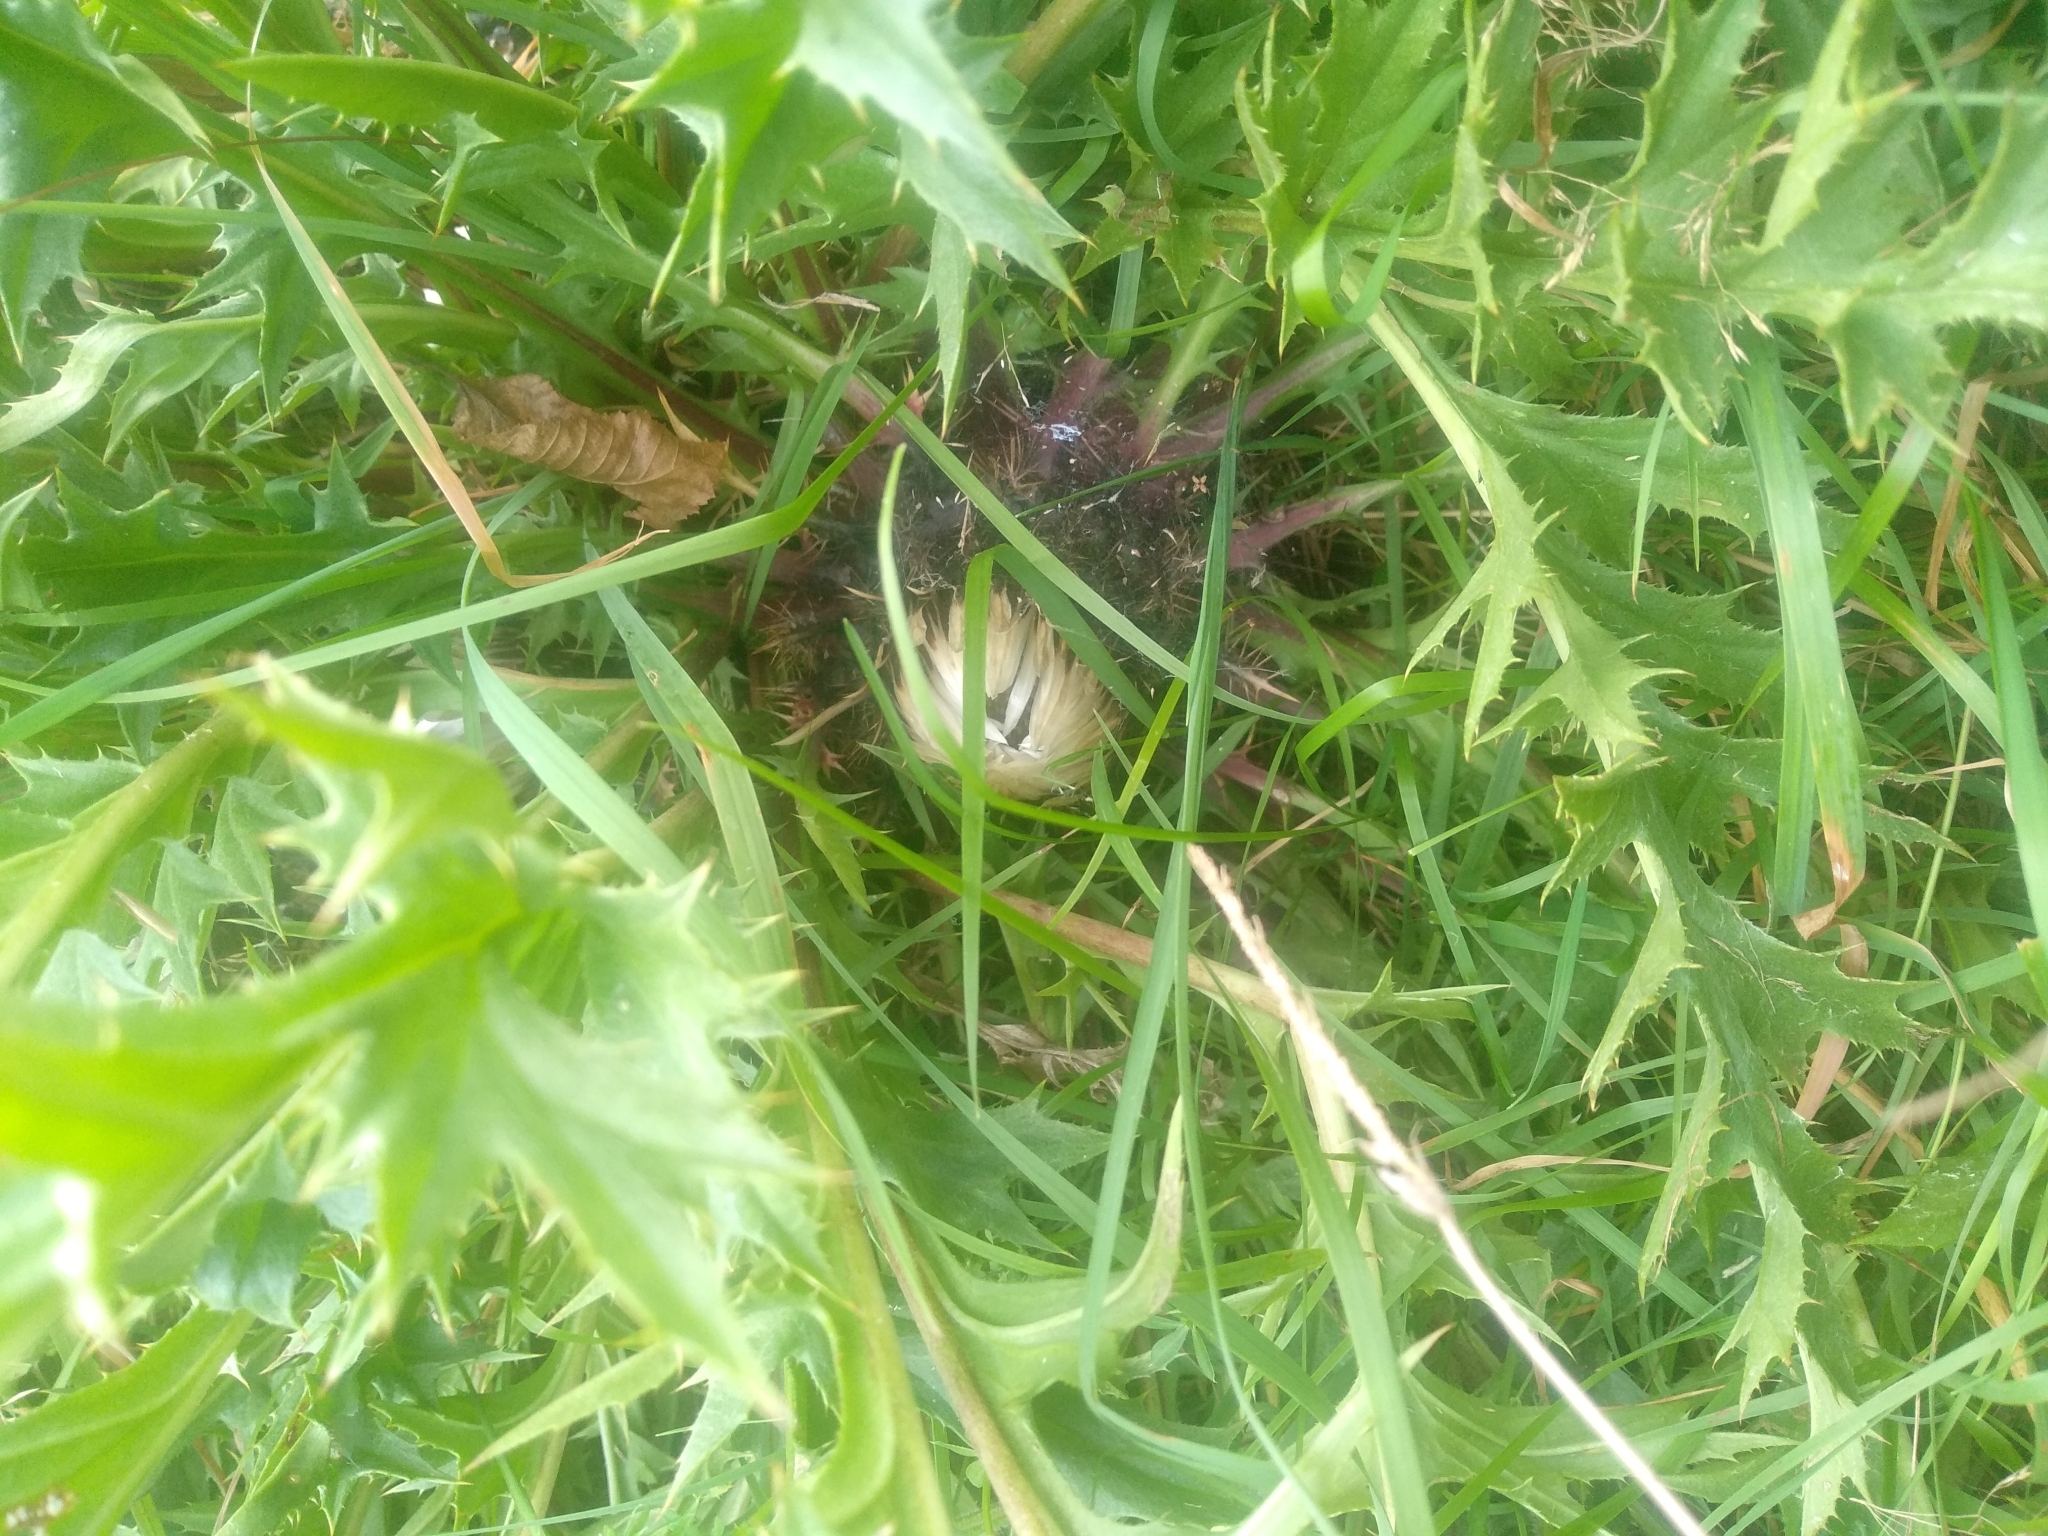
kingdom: Plantae
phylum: Tracheophyta
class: Magnoliopsida
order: Asterales
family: Asteraceae
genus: Carlina
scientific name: Carlina acaulis
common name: Stemless carline thistle
